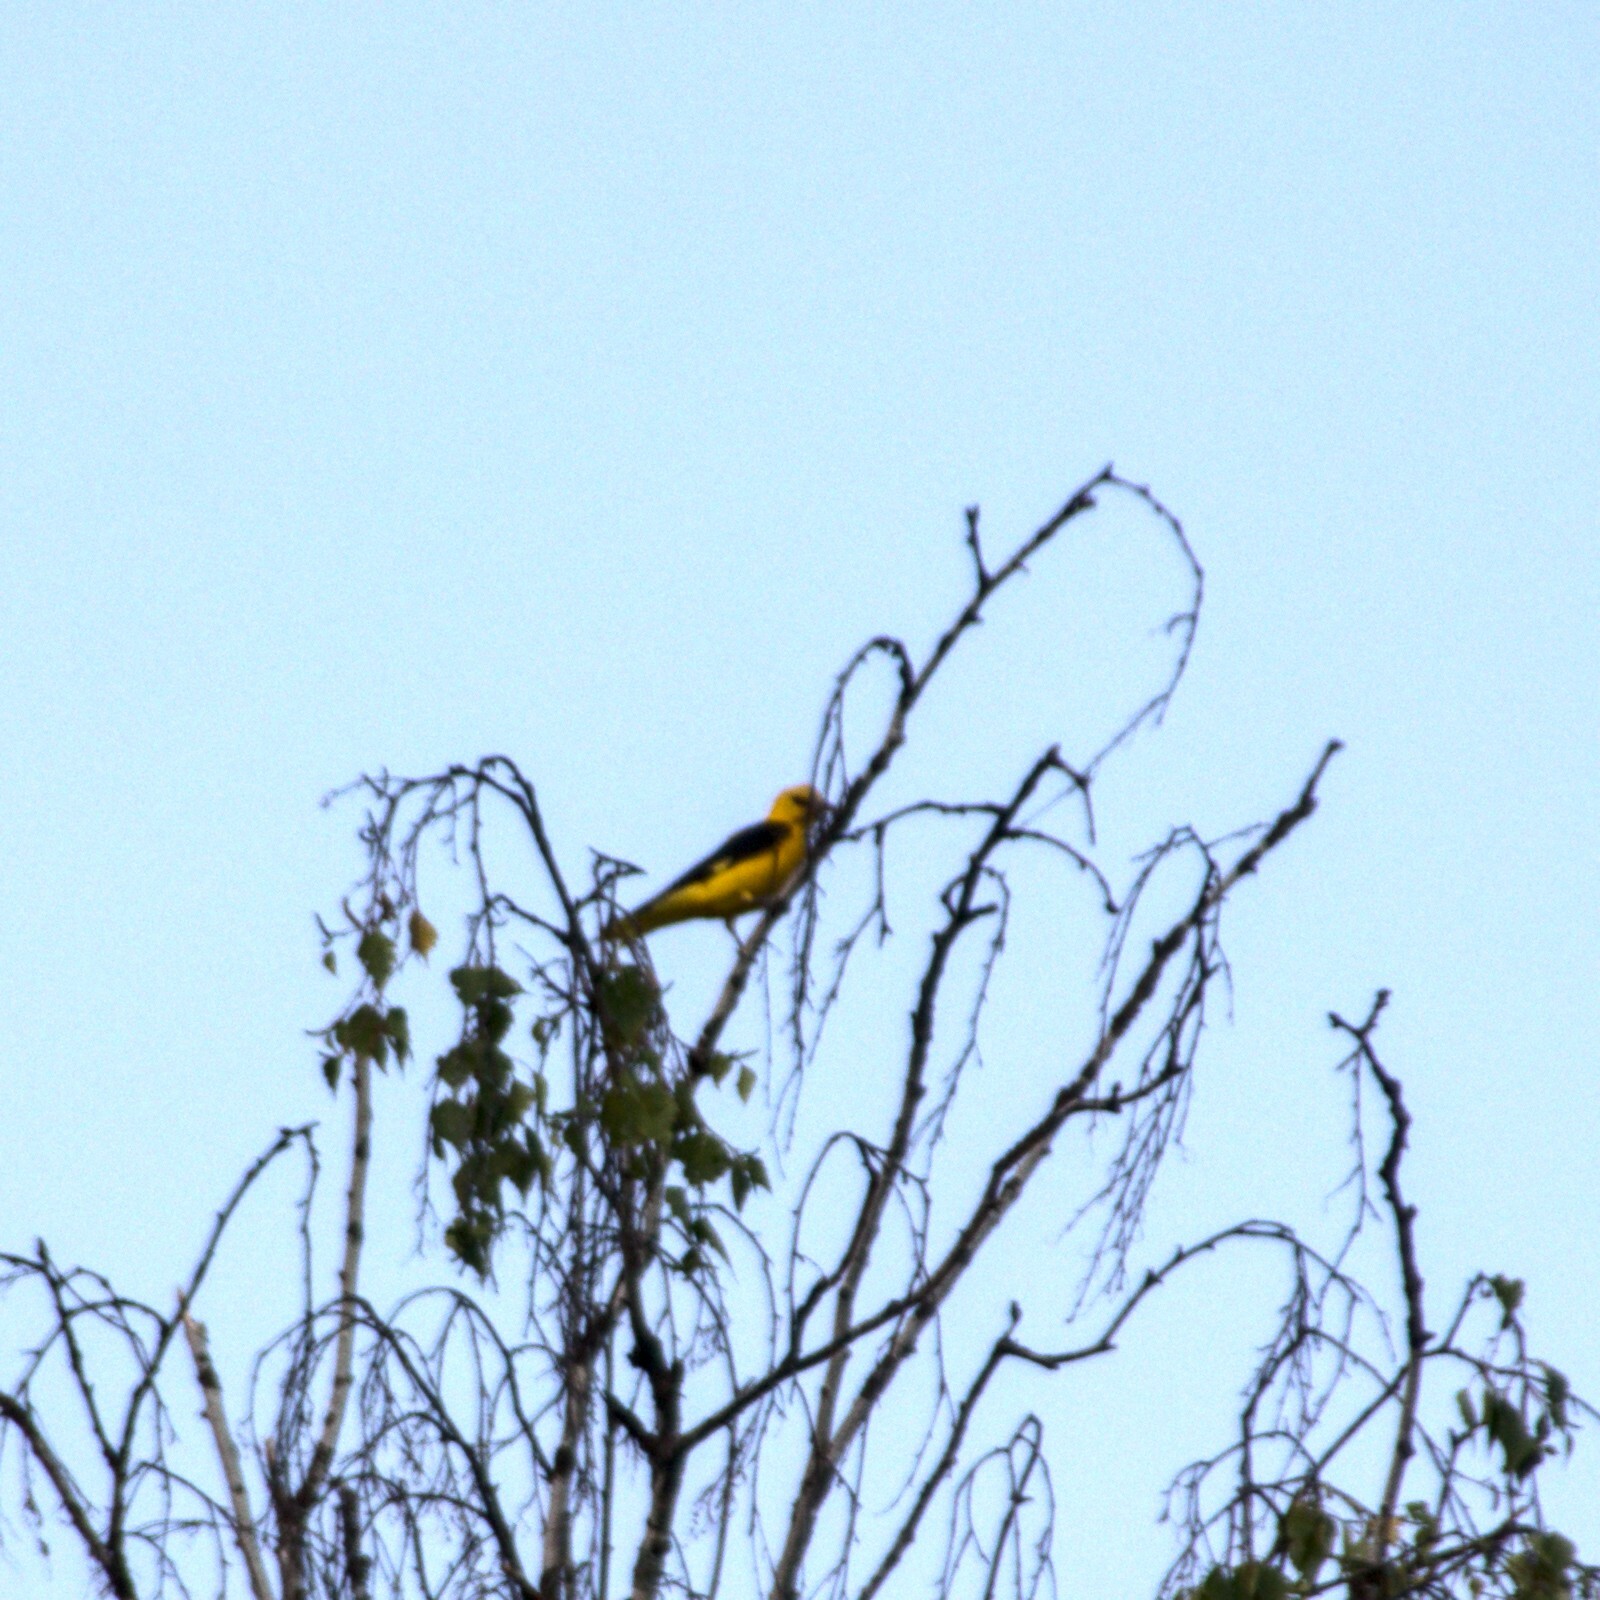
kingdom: Animalia
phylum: Chordata
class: Aves
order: Passeriformes
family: Oriolidae
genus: Oriolus
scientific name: Oriolus oriolus
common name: Eurasian golden oriole
